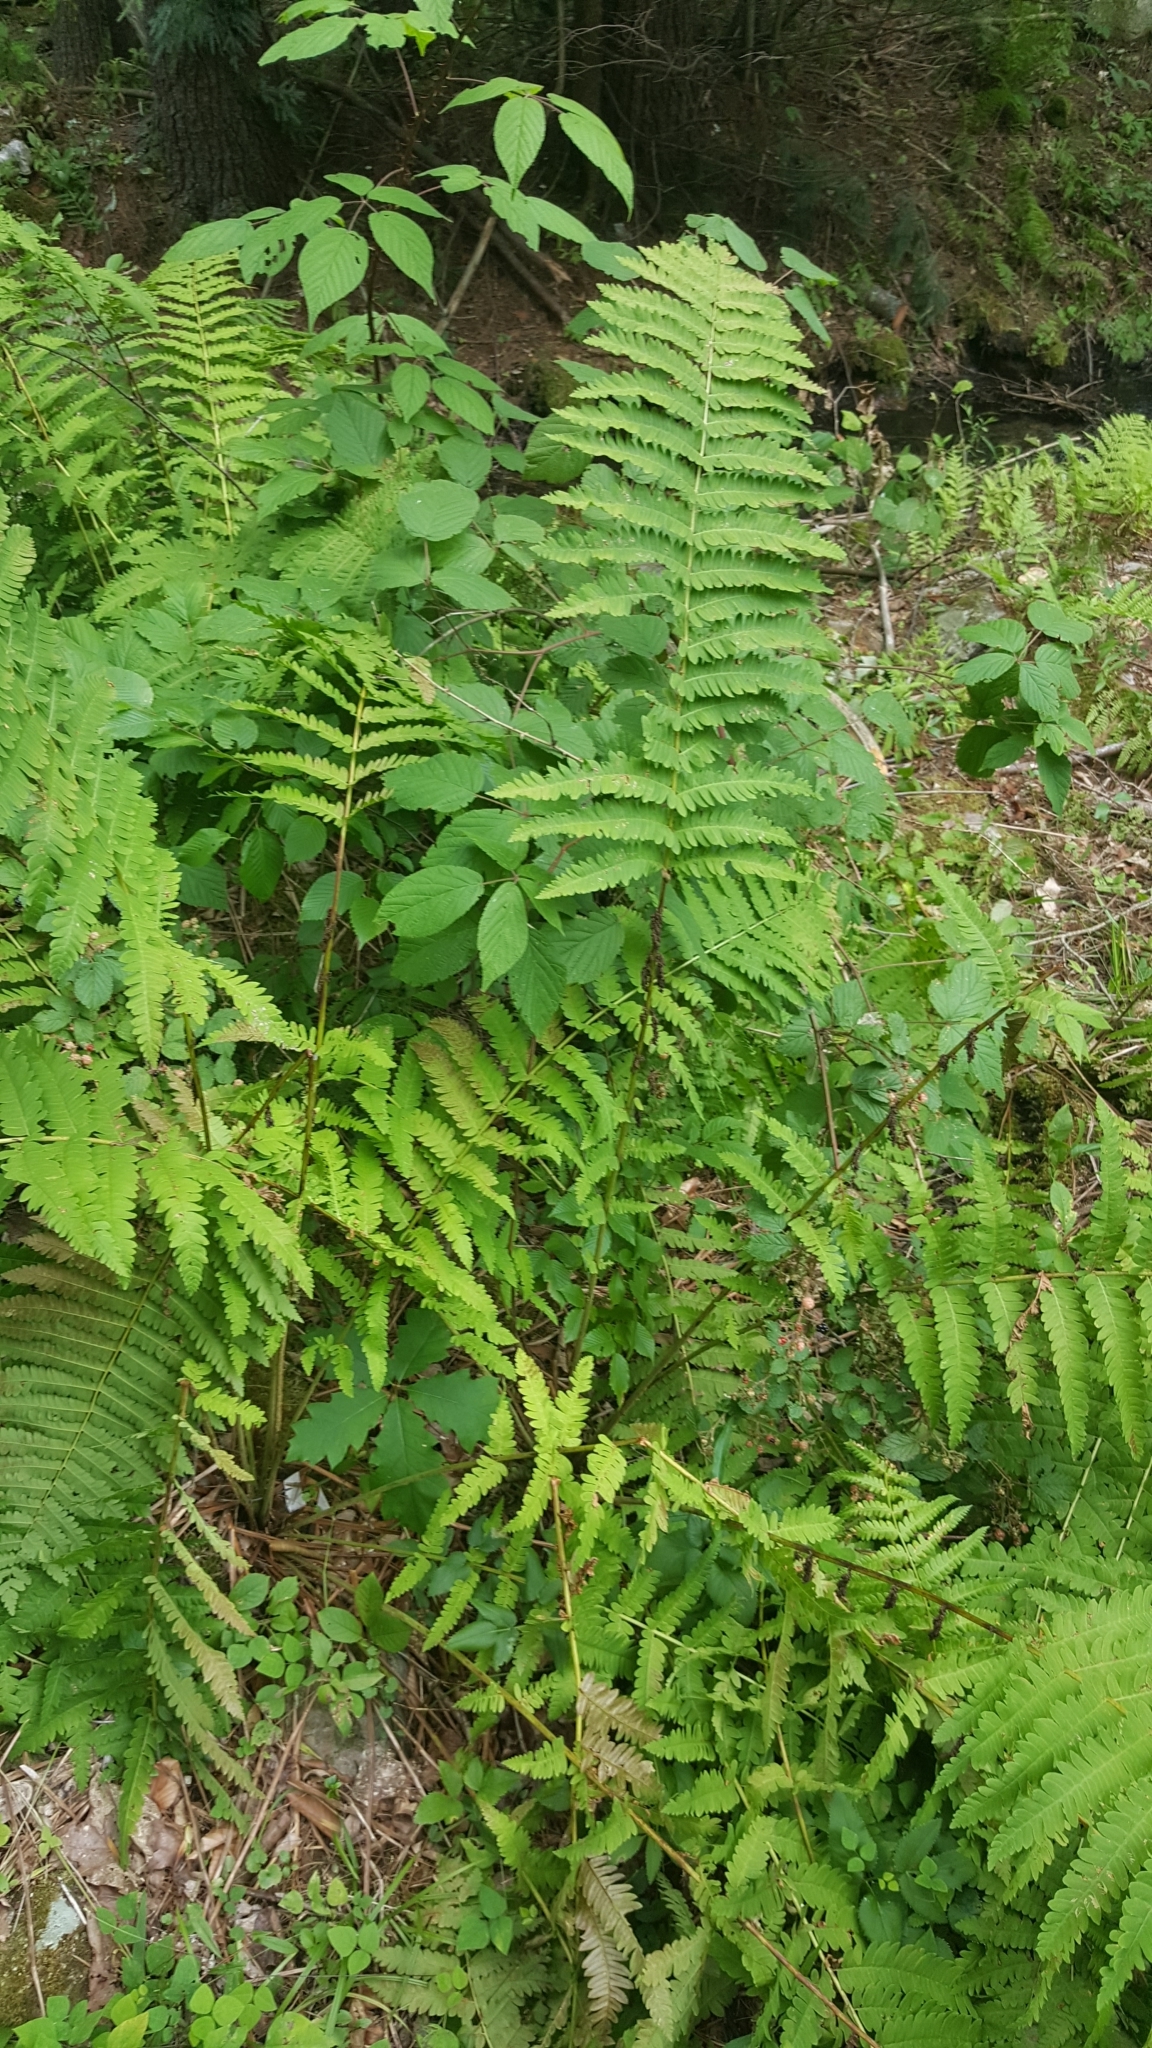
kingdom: Plantae
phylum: Tracheophyta
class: Polypodiopsida
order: Osmundales
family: Osmundaceae
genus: Claytosmunda
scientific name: Claytosmunda claytoniana
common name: Clayton's fern
